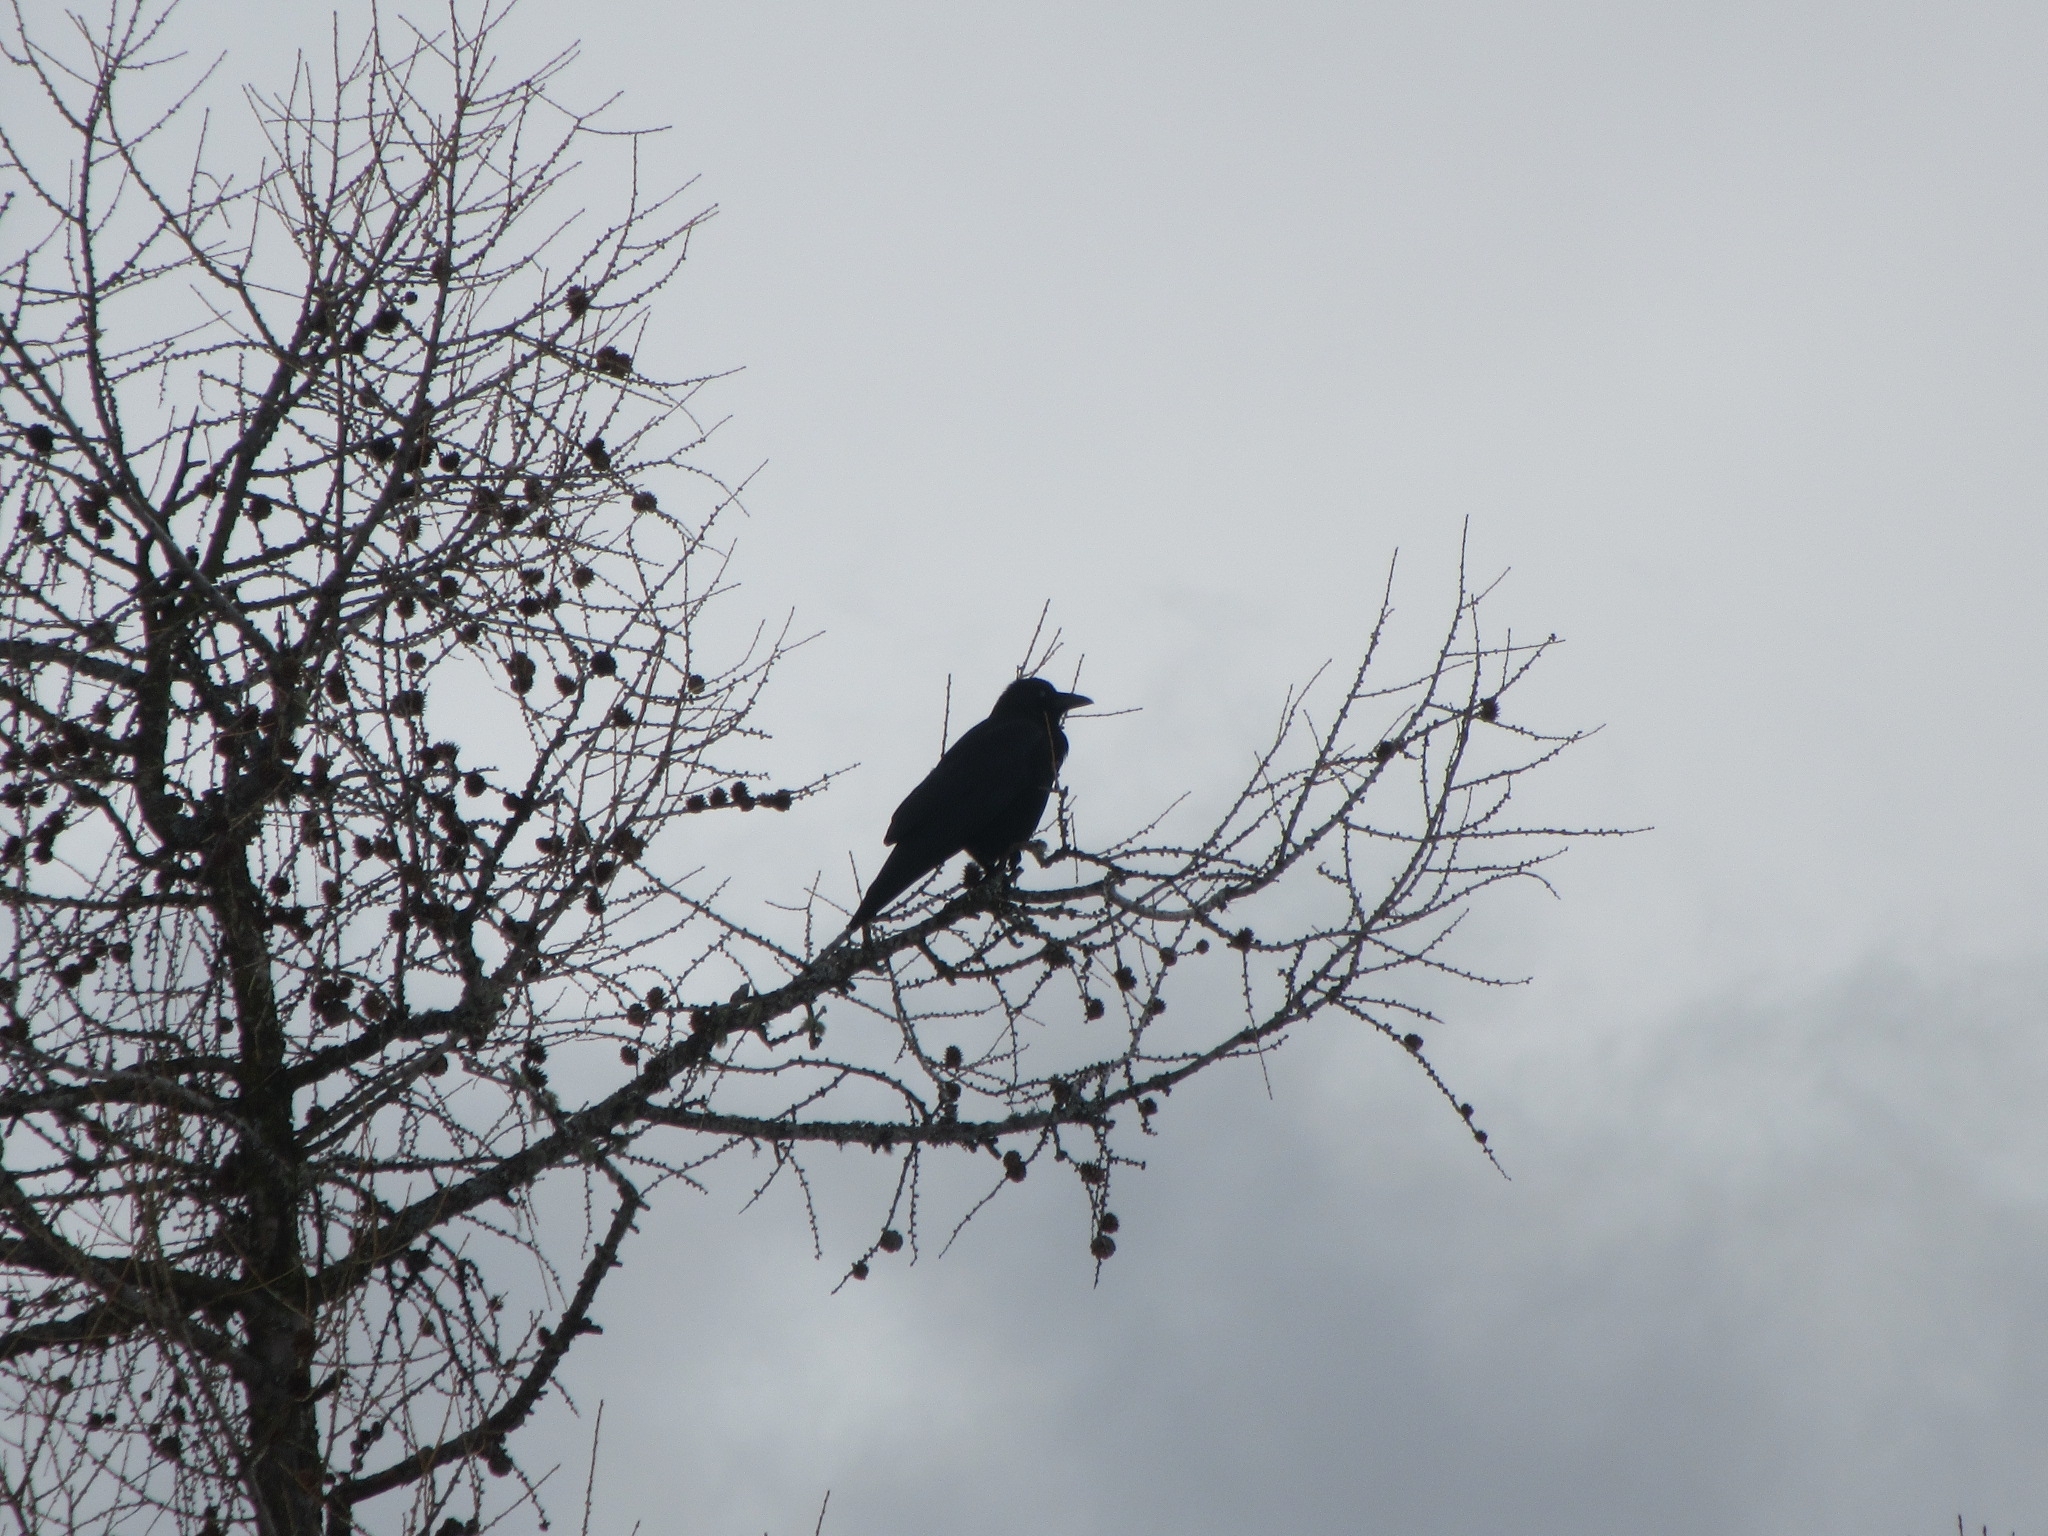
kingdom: Animalia
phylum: Chordata
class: Aves
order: Passeriformes
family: Corvidae
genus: Corvus
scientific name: Corvus corone
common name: Carrion crow
